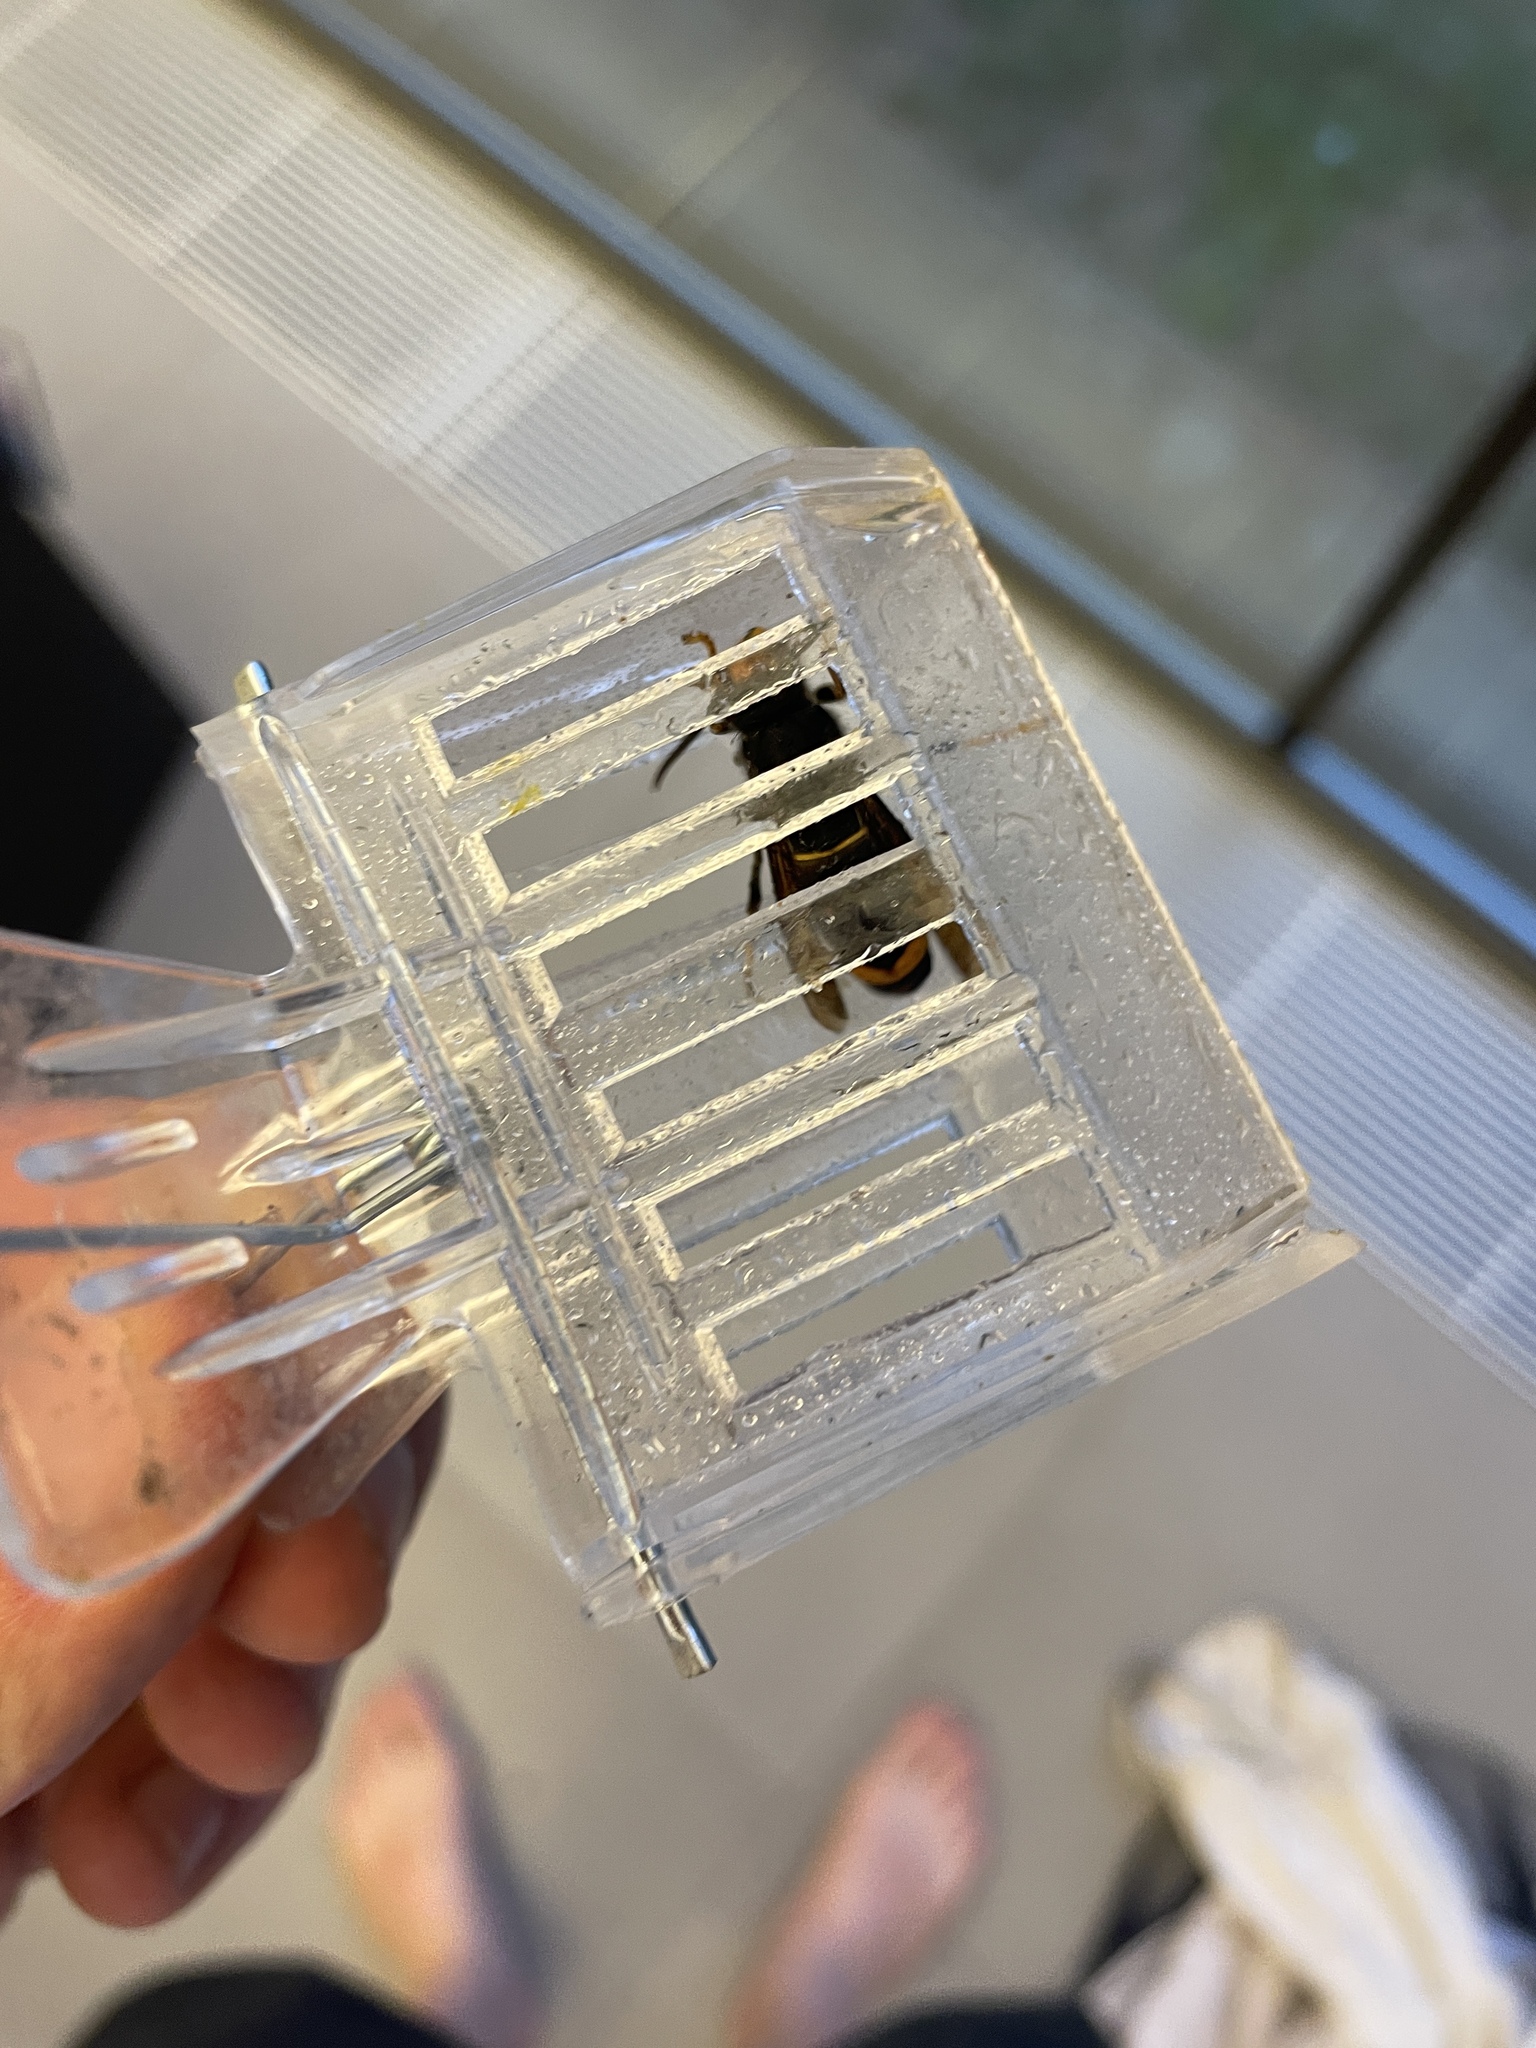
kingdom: Animalia
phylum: Arthropoda
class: Insecta
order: Hymenoptera
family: Vespidae
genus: Vespa
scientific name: Vespa velutina
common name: Asian hornet
